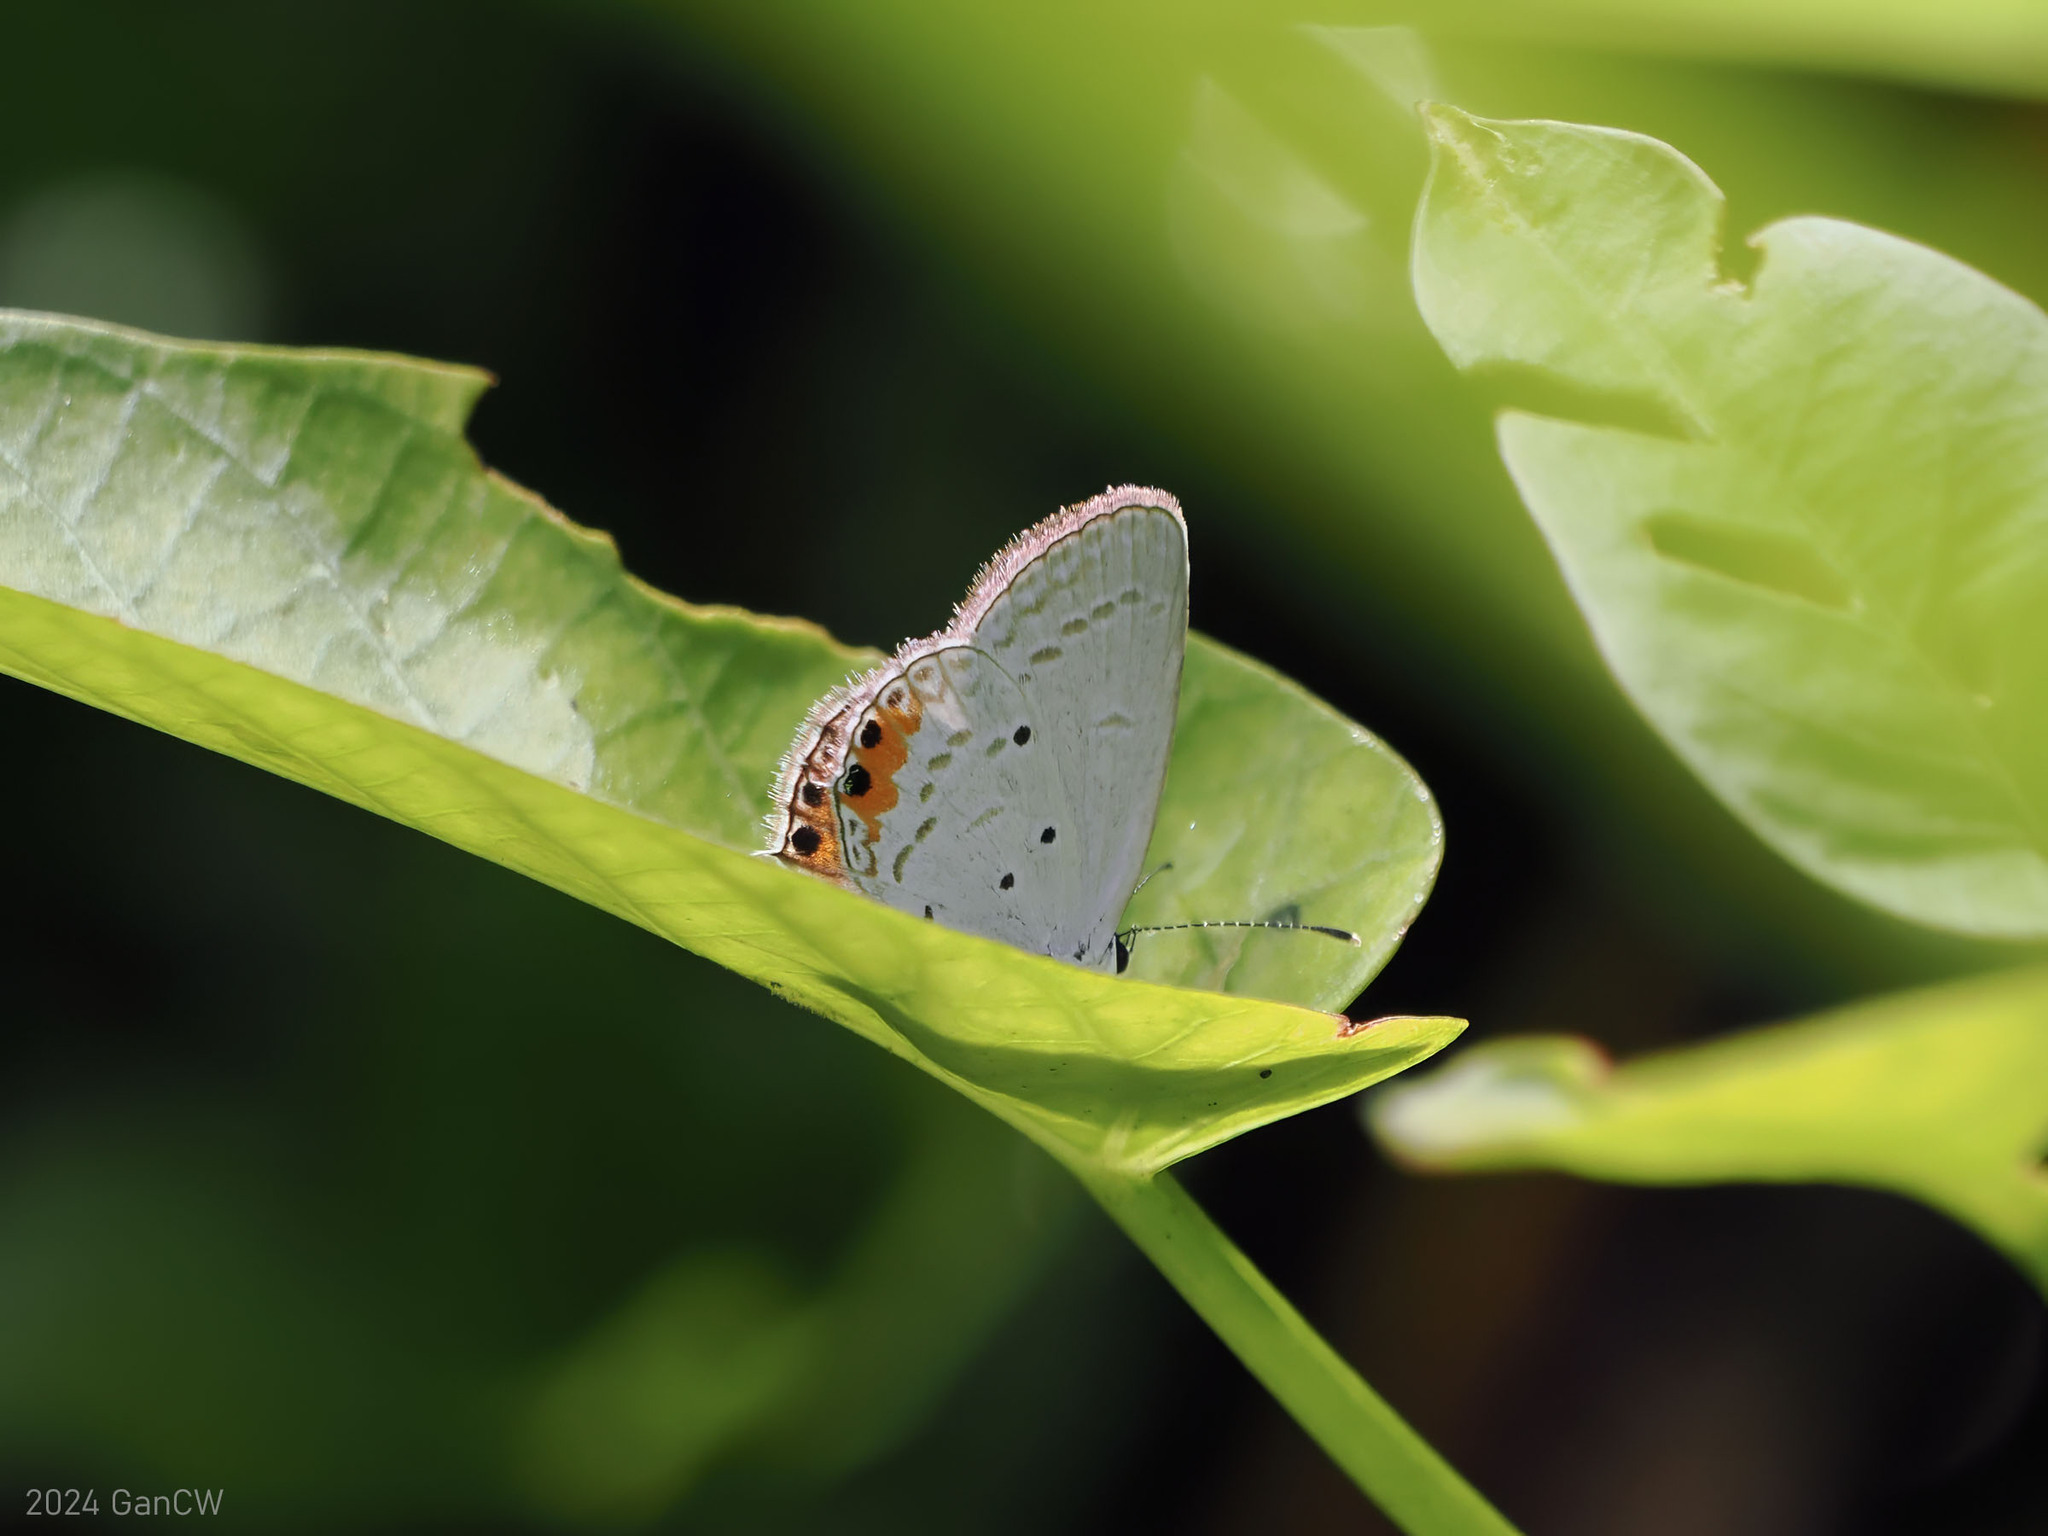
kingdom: Animalia
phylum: Arthropoda
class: Insecta
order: Lepidoptera
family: Lycaenidae
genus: Everes
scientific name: Everes lacturnus
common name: Orange-tipped pea-blue
